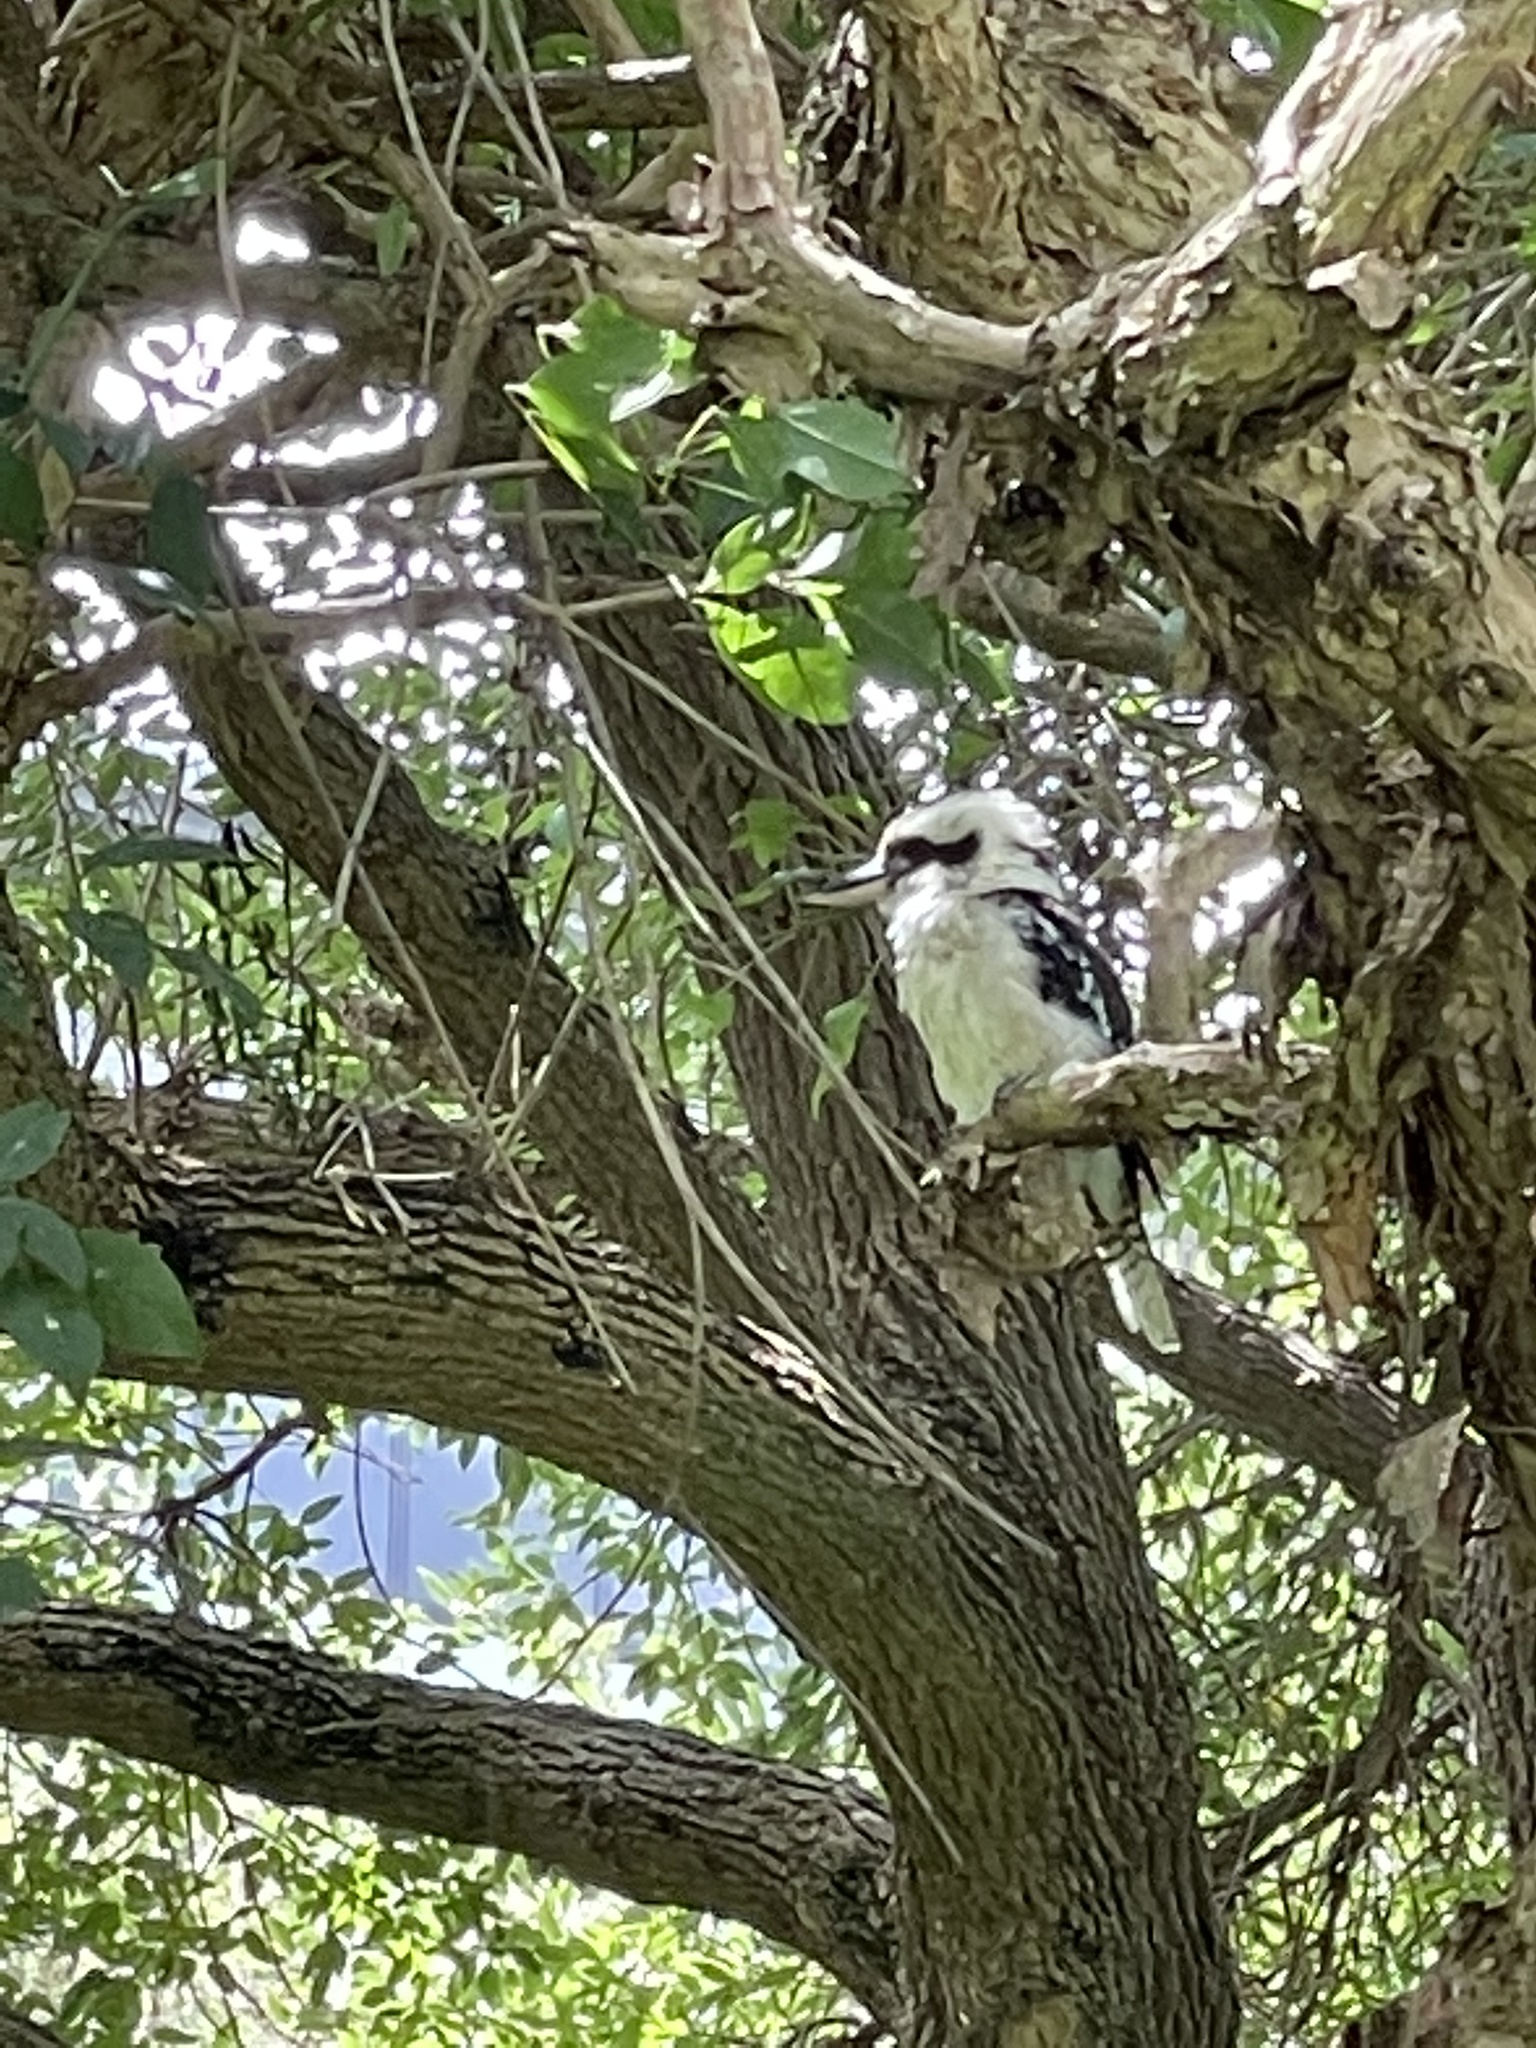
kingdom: Animalia
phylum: Chordata
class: Aves
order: Coraciiformes
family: Alcedinidae
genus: Dacelo
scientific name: Dacelo novaeguineae
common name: Laughing kookaburra
